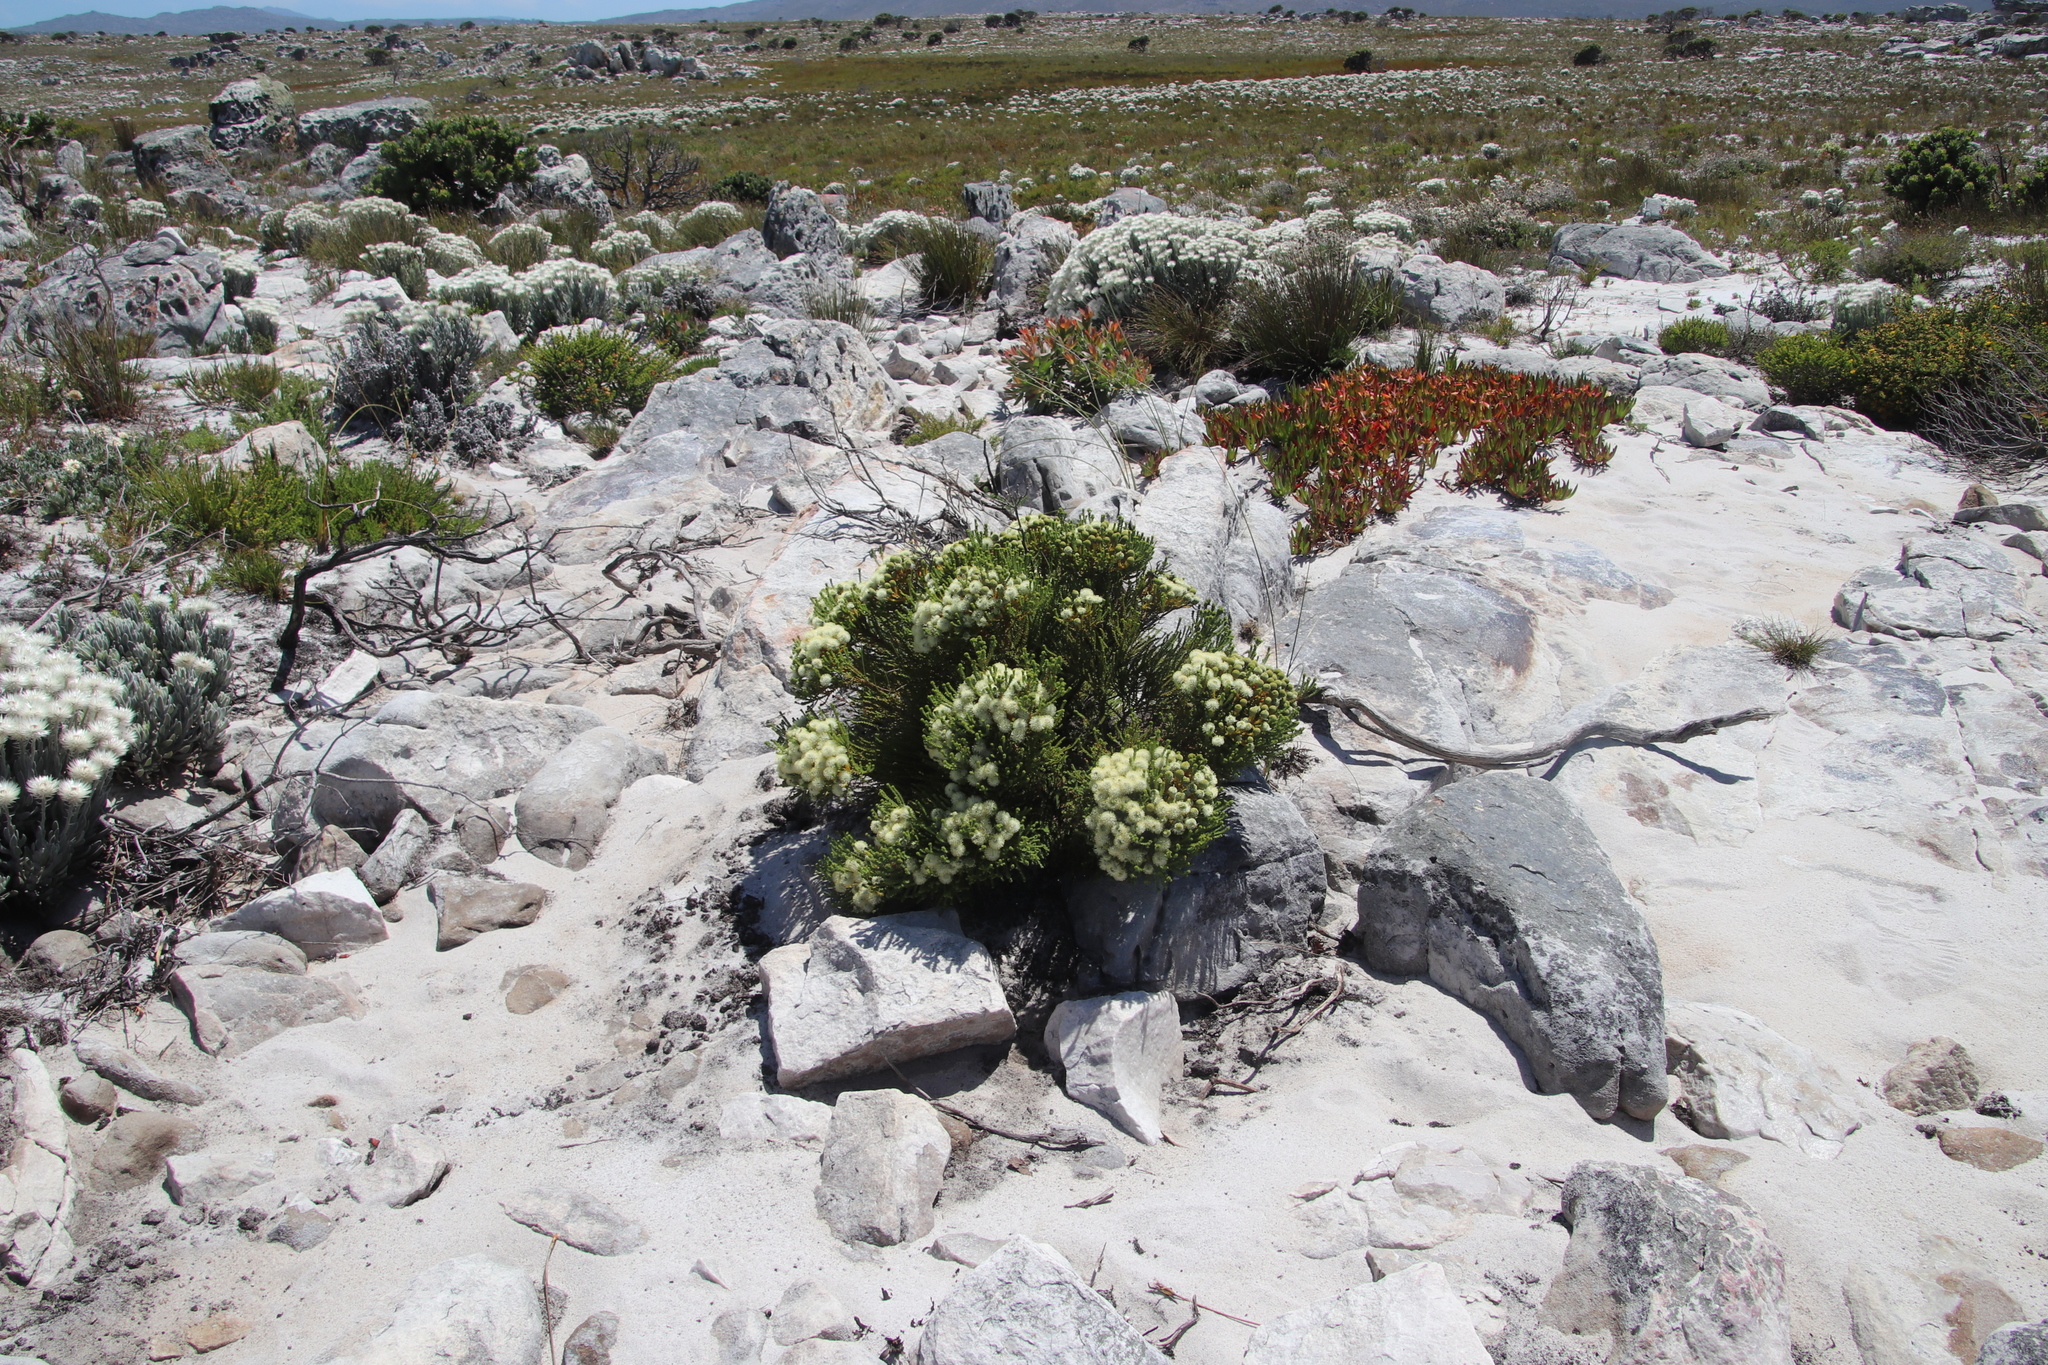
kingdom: Plantae
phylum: Tracheophyta
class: Magnoliopsida
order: Bruniales
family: Bruniaceae
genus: Berzelia
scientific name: Berzelia abrotanoides
